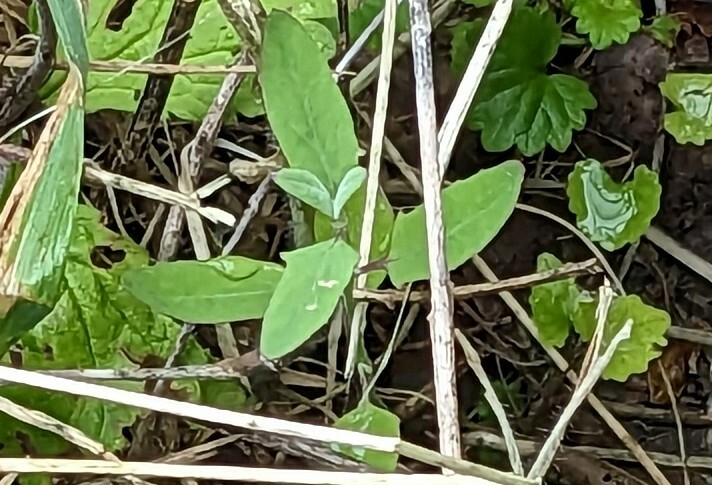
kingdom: Plantae
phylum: Tracheophyta
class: Magnoliopsida
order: Caryophyllales
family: Amaranthaceae
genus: Chenopodium
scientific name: Chenopodium album
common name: Fat-hen
